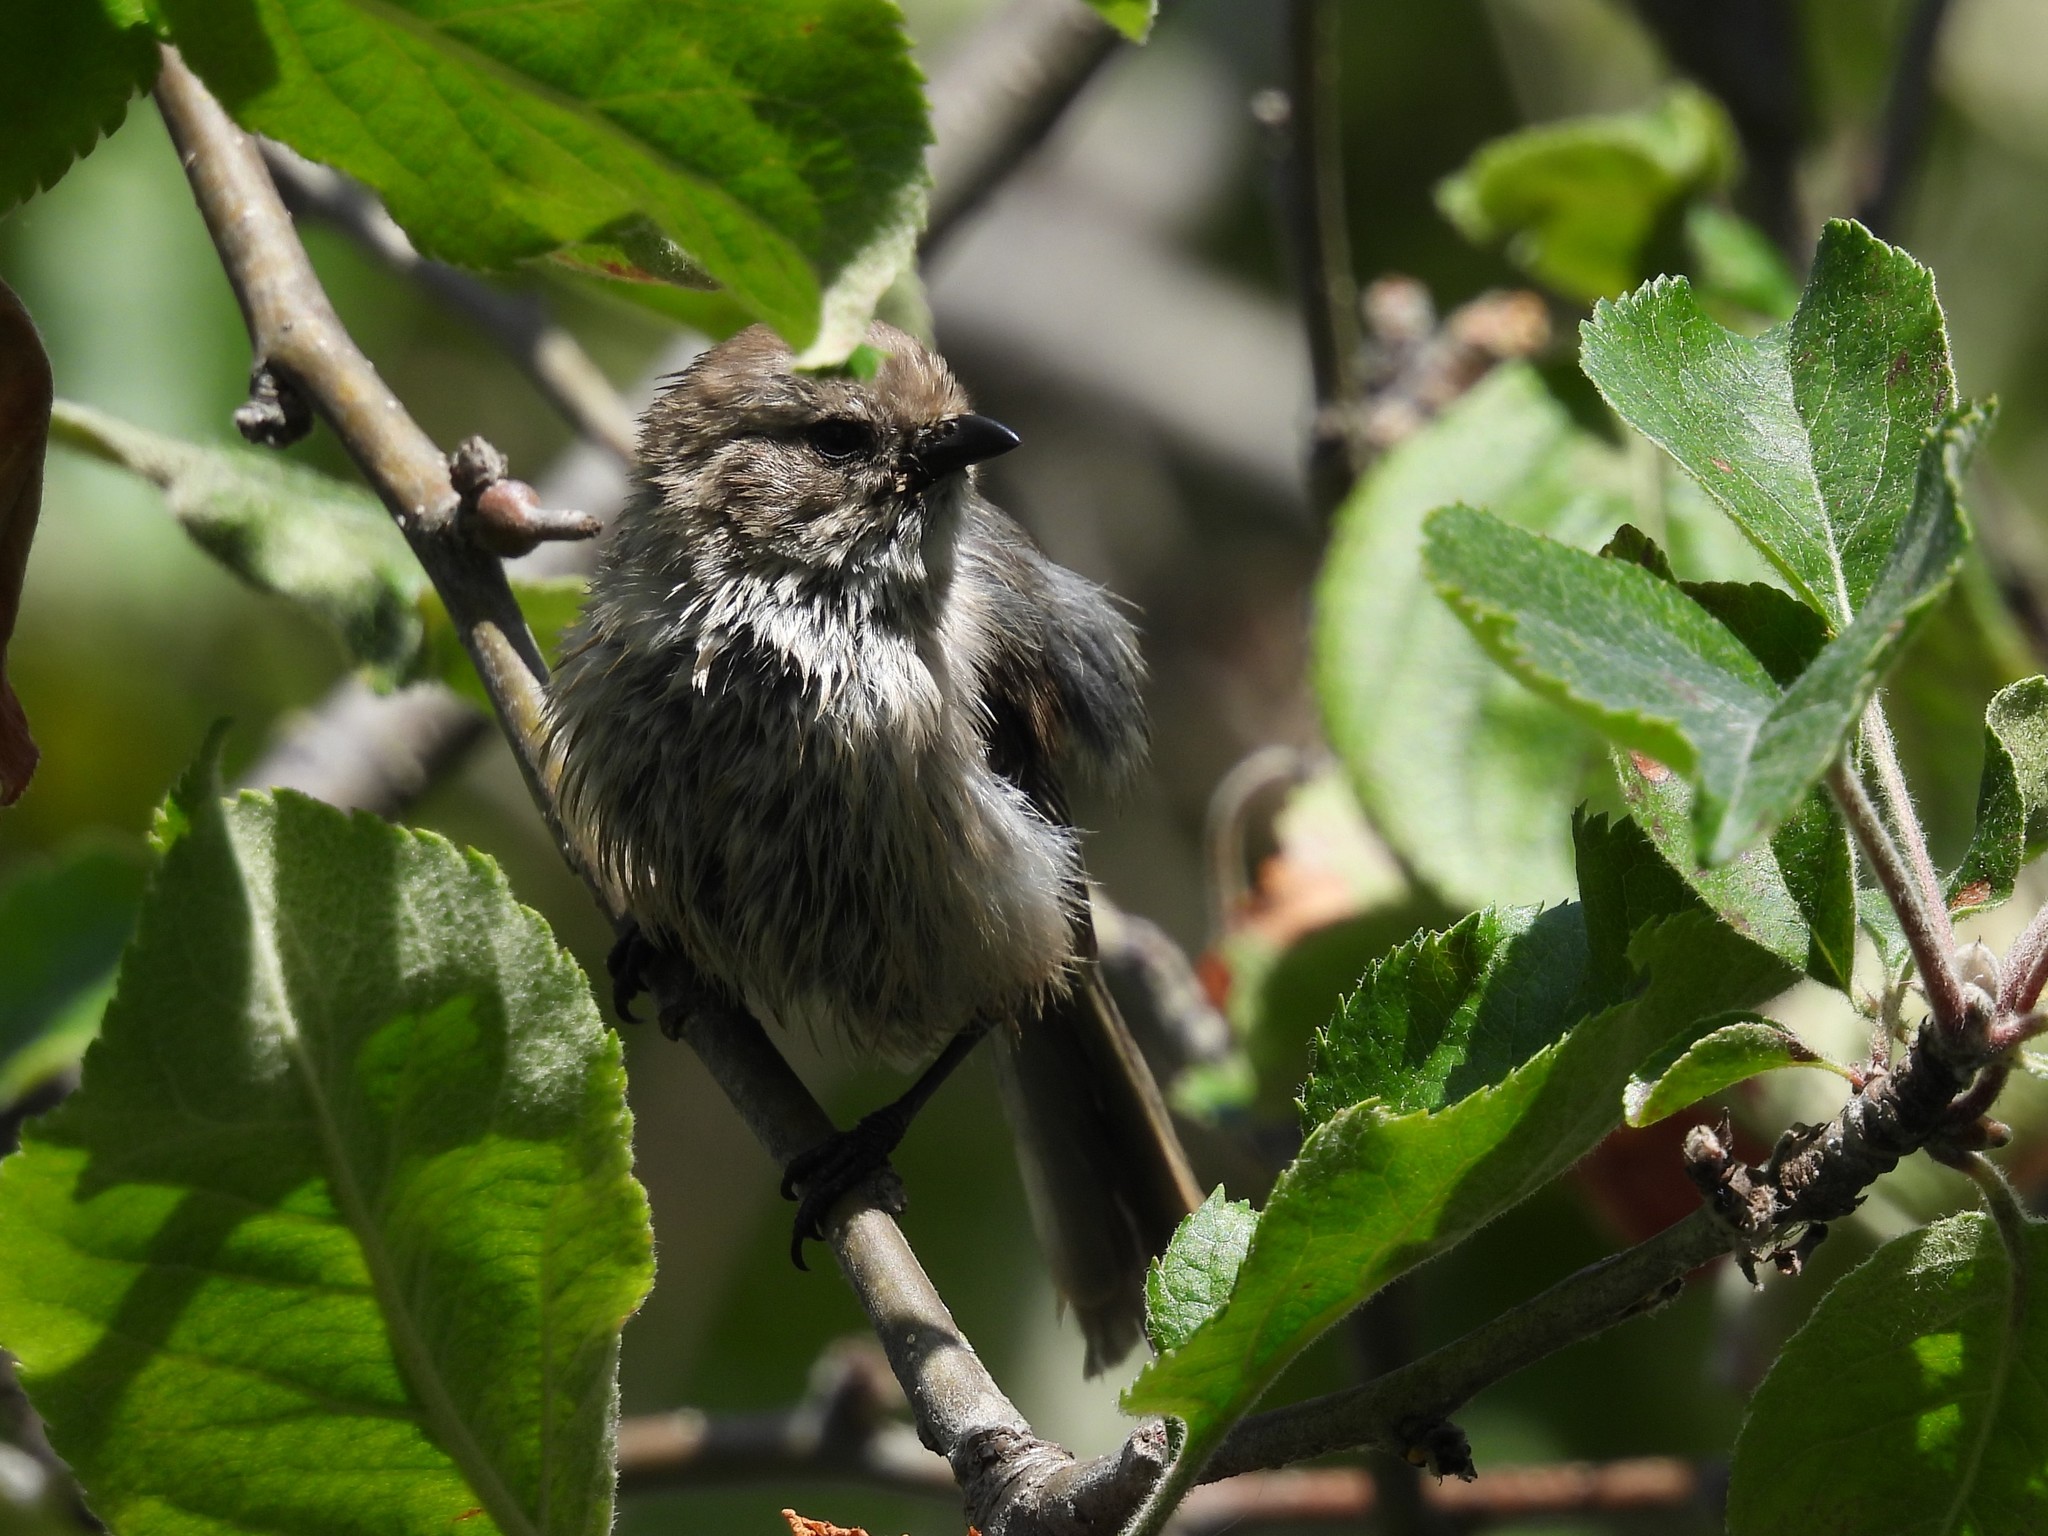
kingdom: Animalia
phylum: Chordata
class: Aves
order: Passeriformes
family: Aegithalidae
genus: Psaltriparus
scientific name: Psaltriparus minimus
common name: American bushtit
